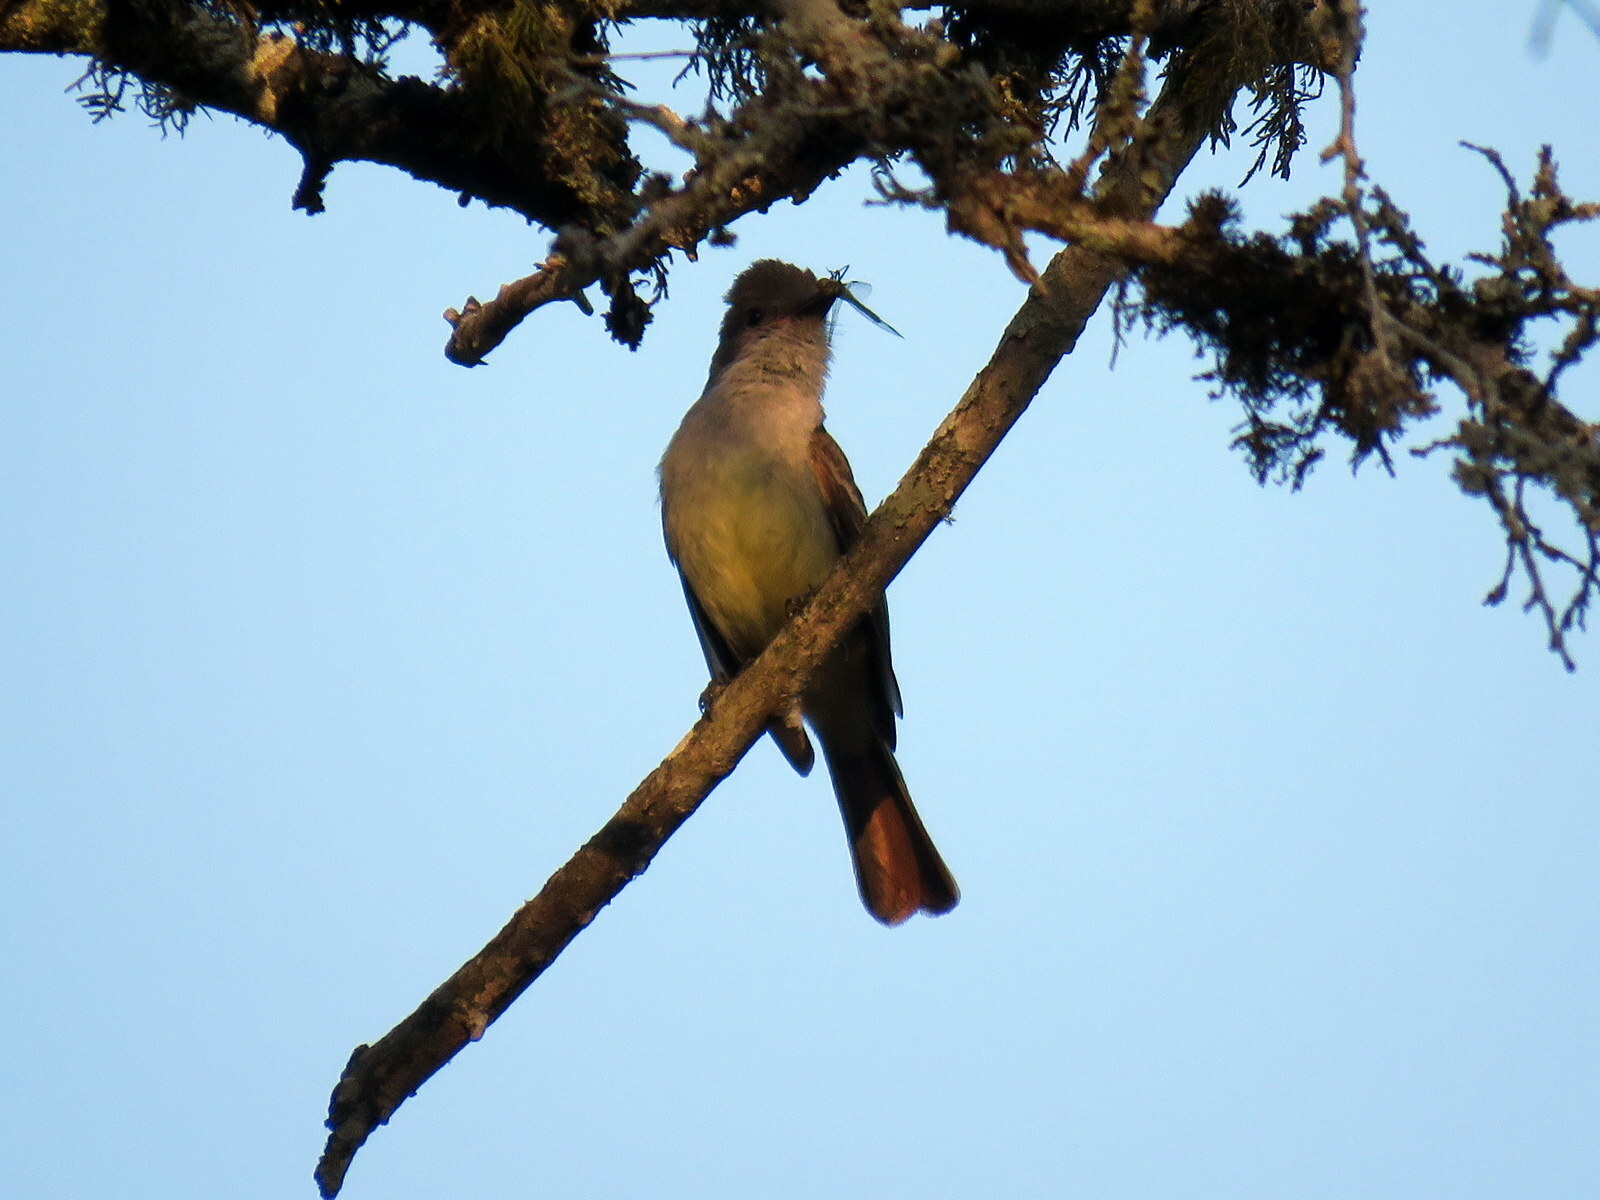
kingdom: Animalia
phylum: Chordata
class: Aves
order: Passeriformes
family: Tyrannidae
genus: Myiarchus
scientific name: Myiarchus tyrannulus
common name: Brown-crested flycatcher
